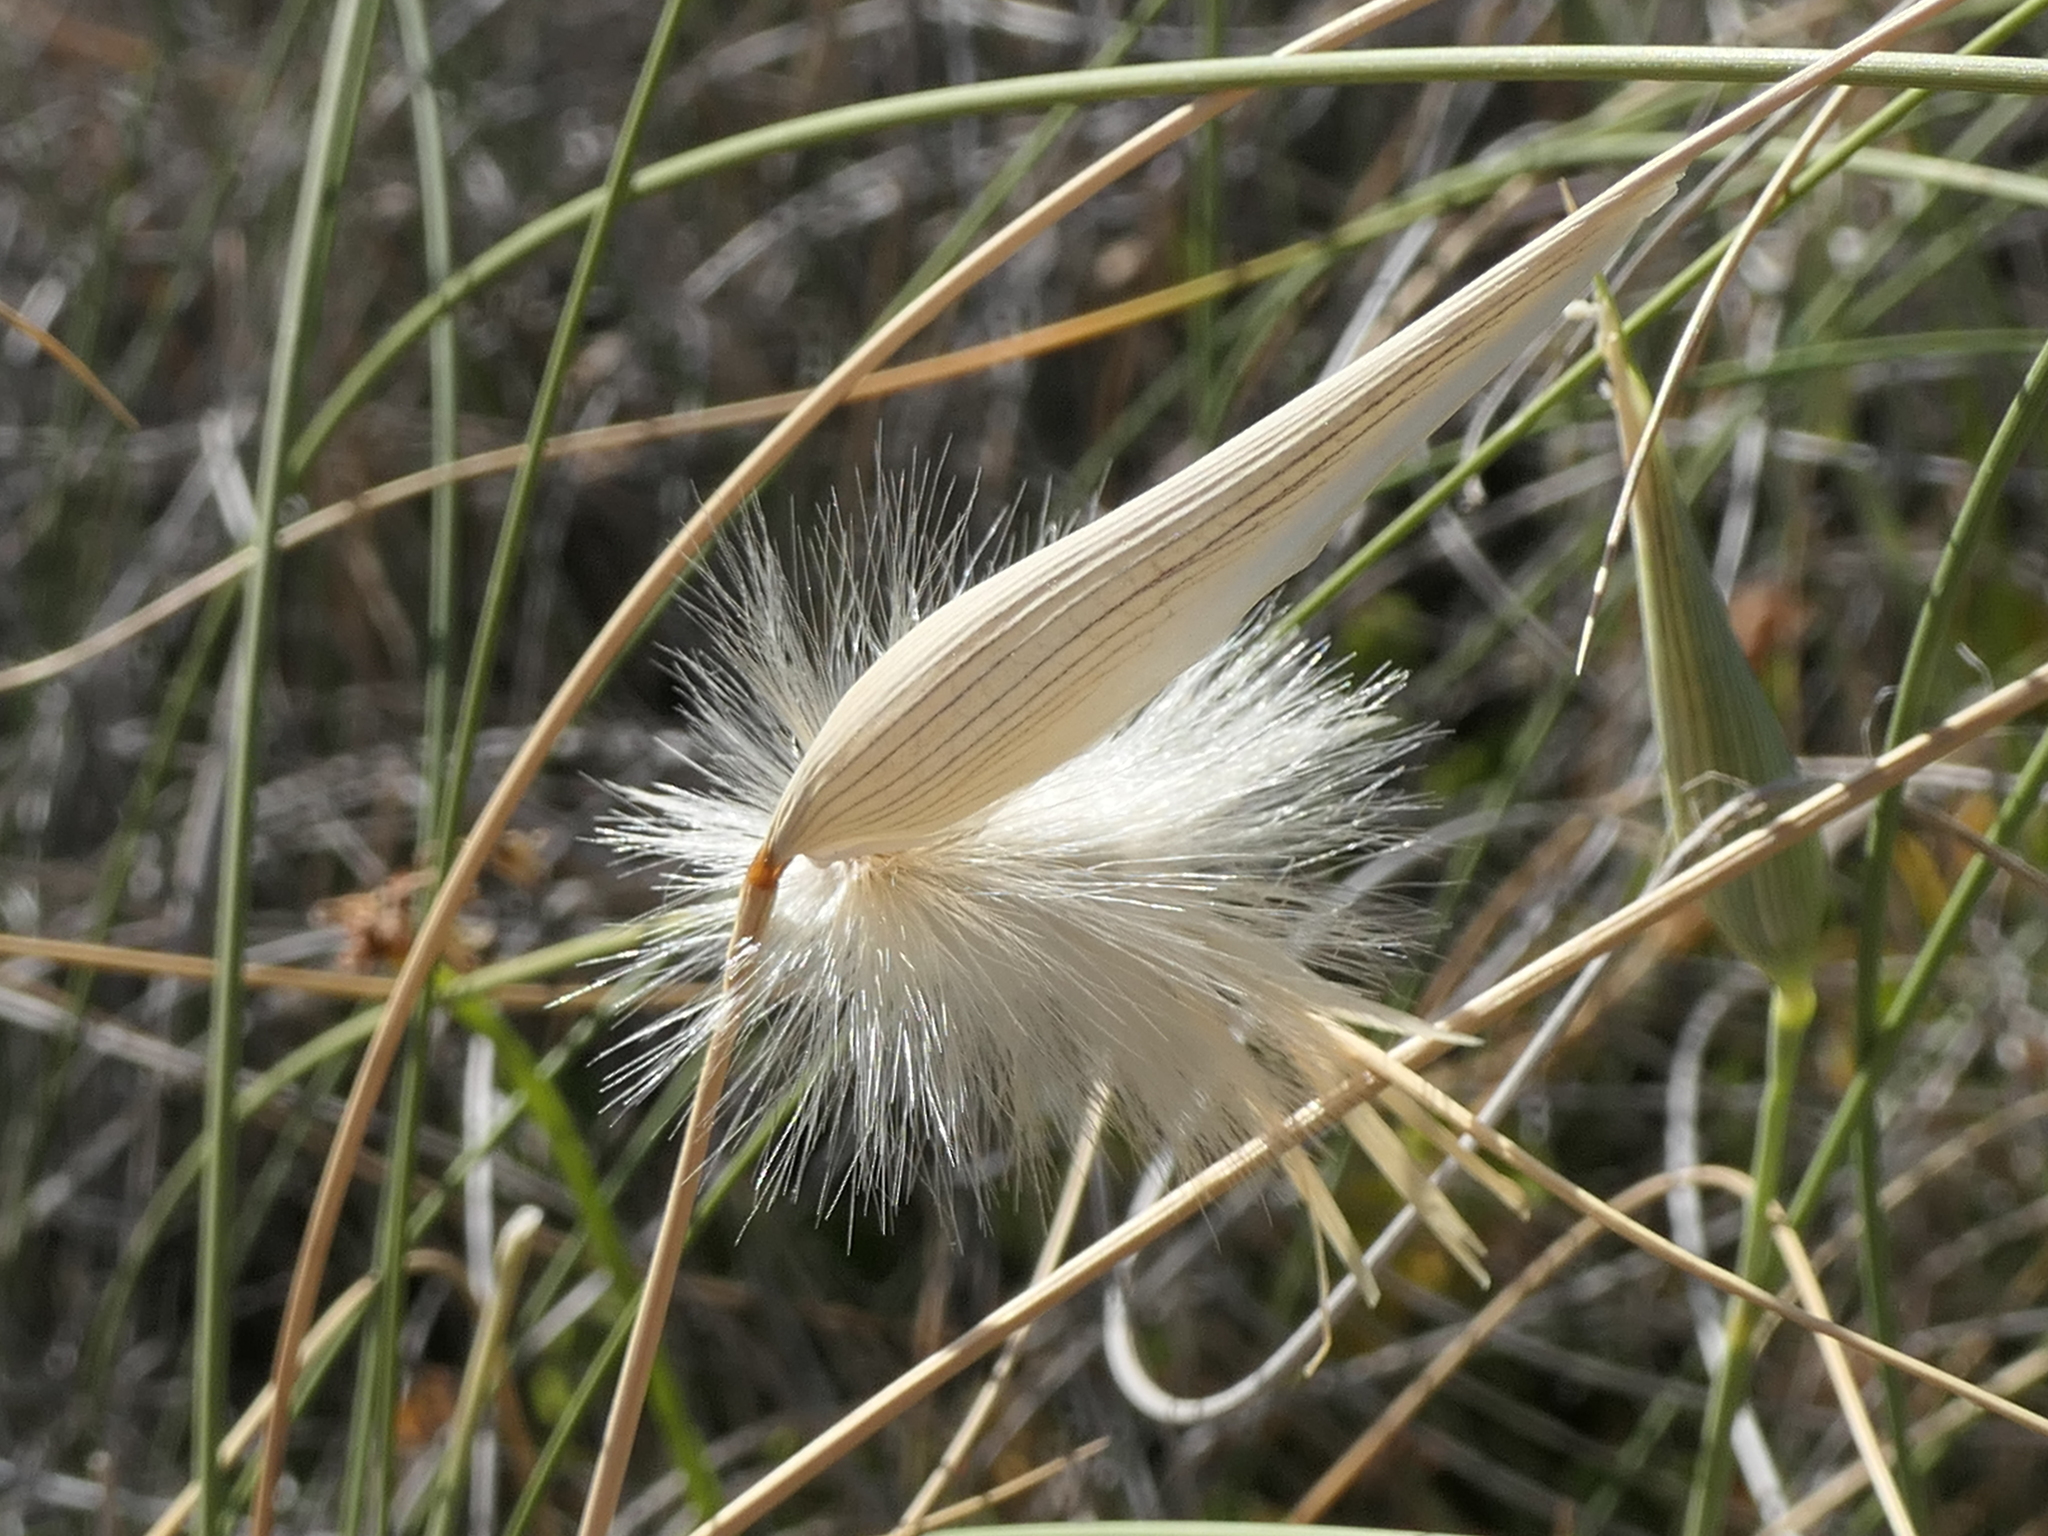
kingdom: Plantae
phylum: Tracheophyta
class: Liliopsida
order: Poales
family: Poaceae
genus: Lygeum
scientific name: Lygeum spartum
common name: Albardine
